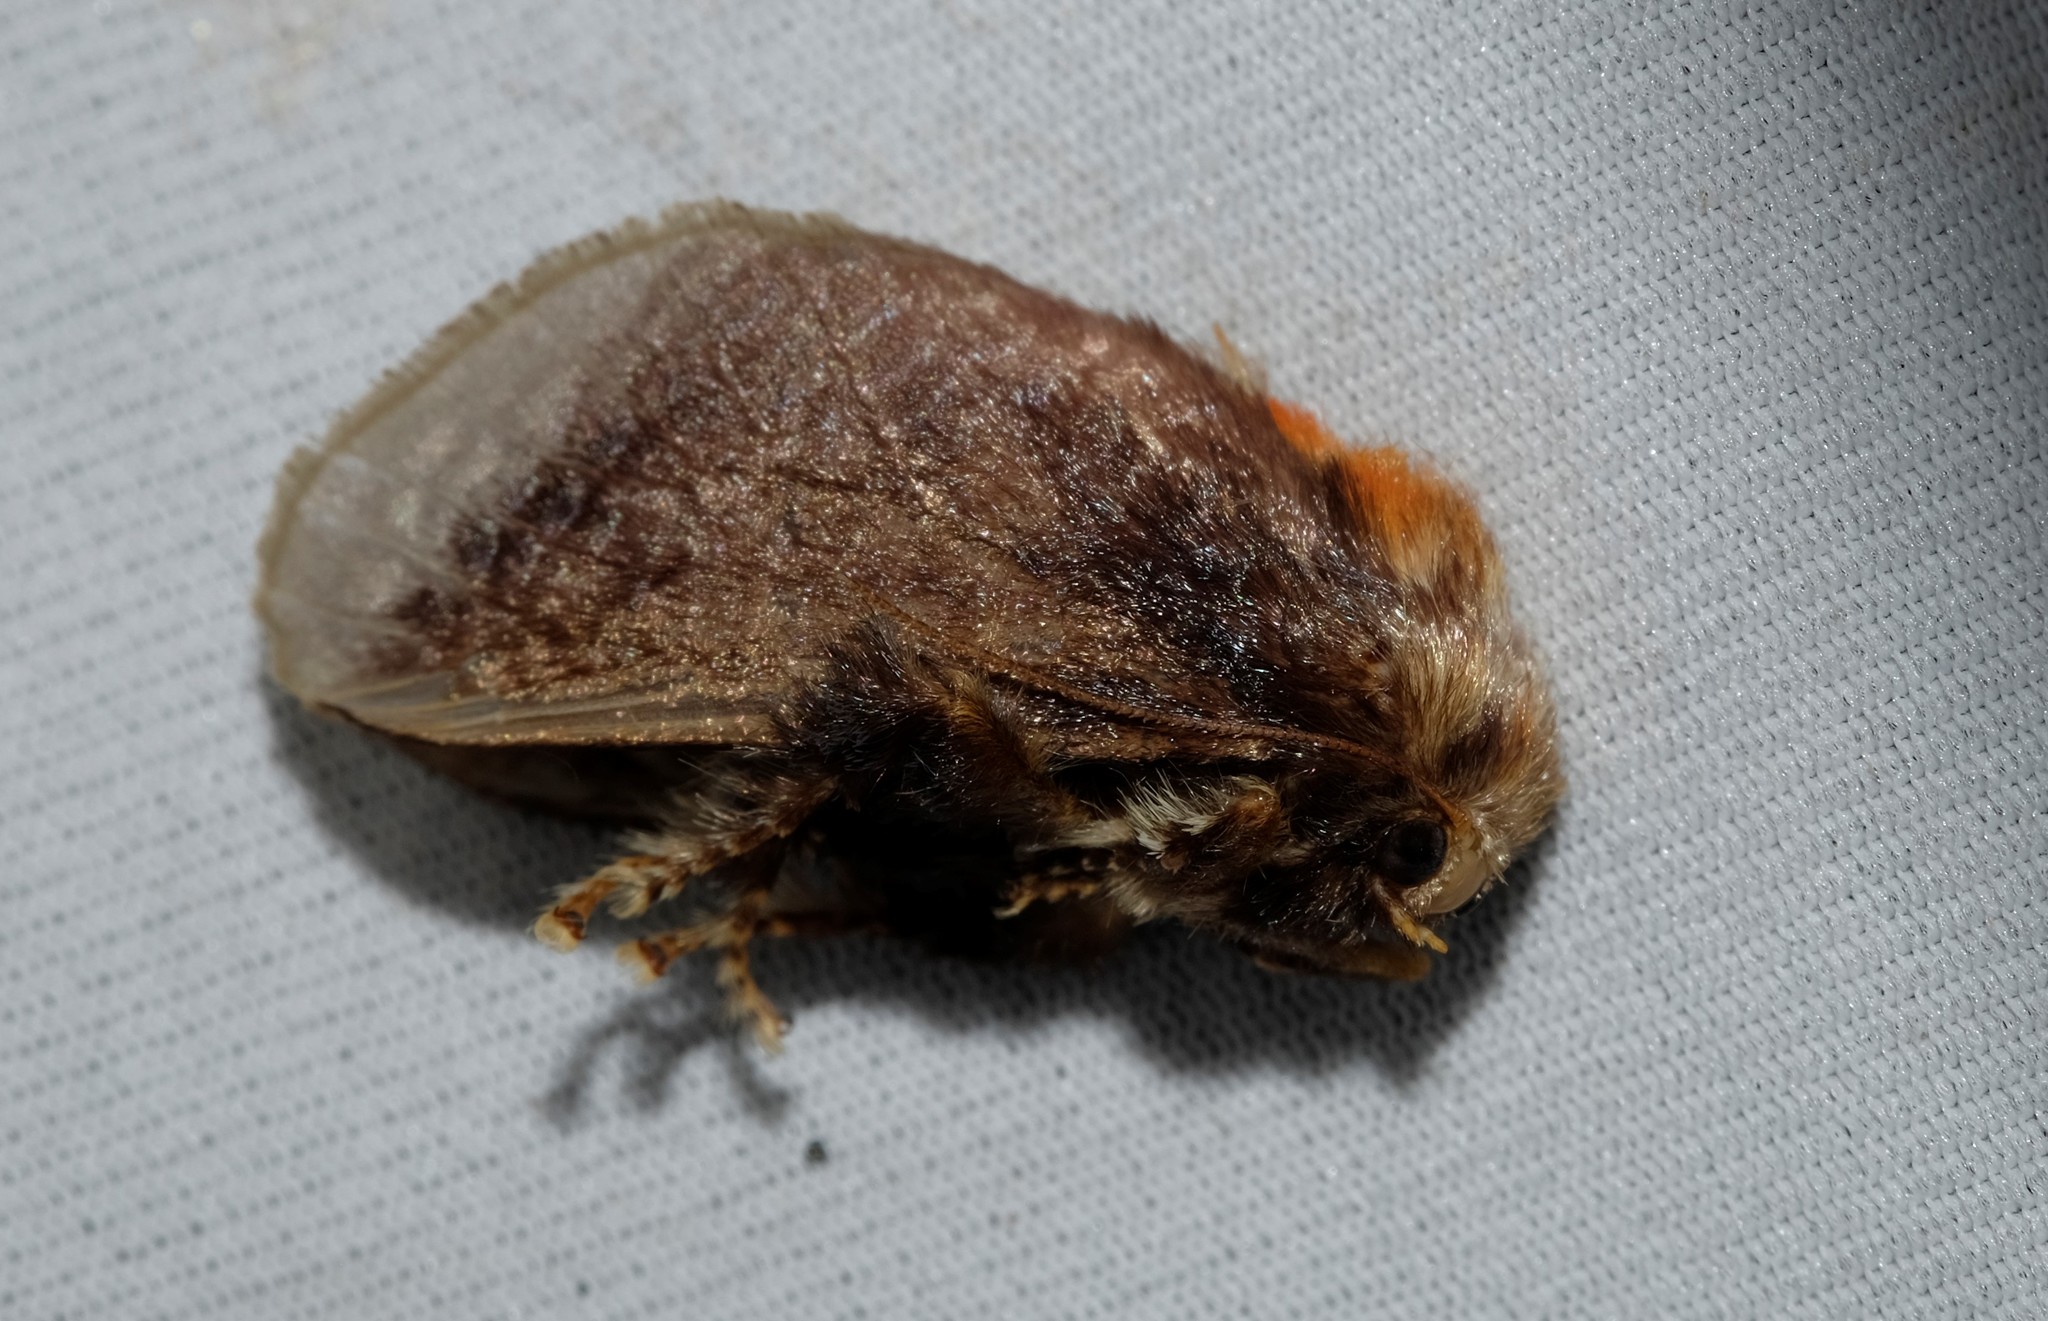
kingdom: Animalia
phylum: Arthropoda
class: Insecta
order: Lepidoptera
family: Limacodidae
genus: Doratifera
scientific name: Doratifera oxleyi
